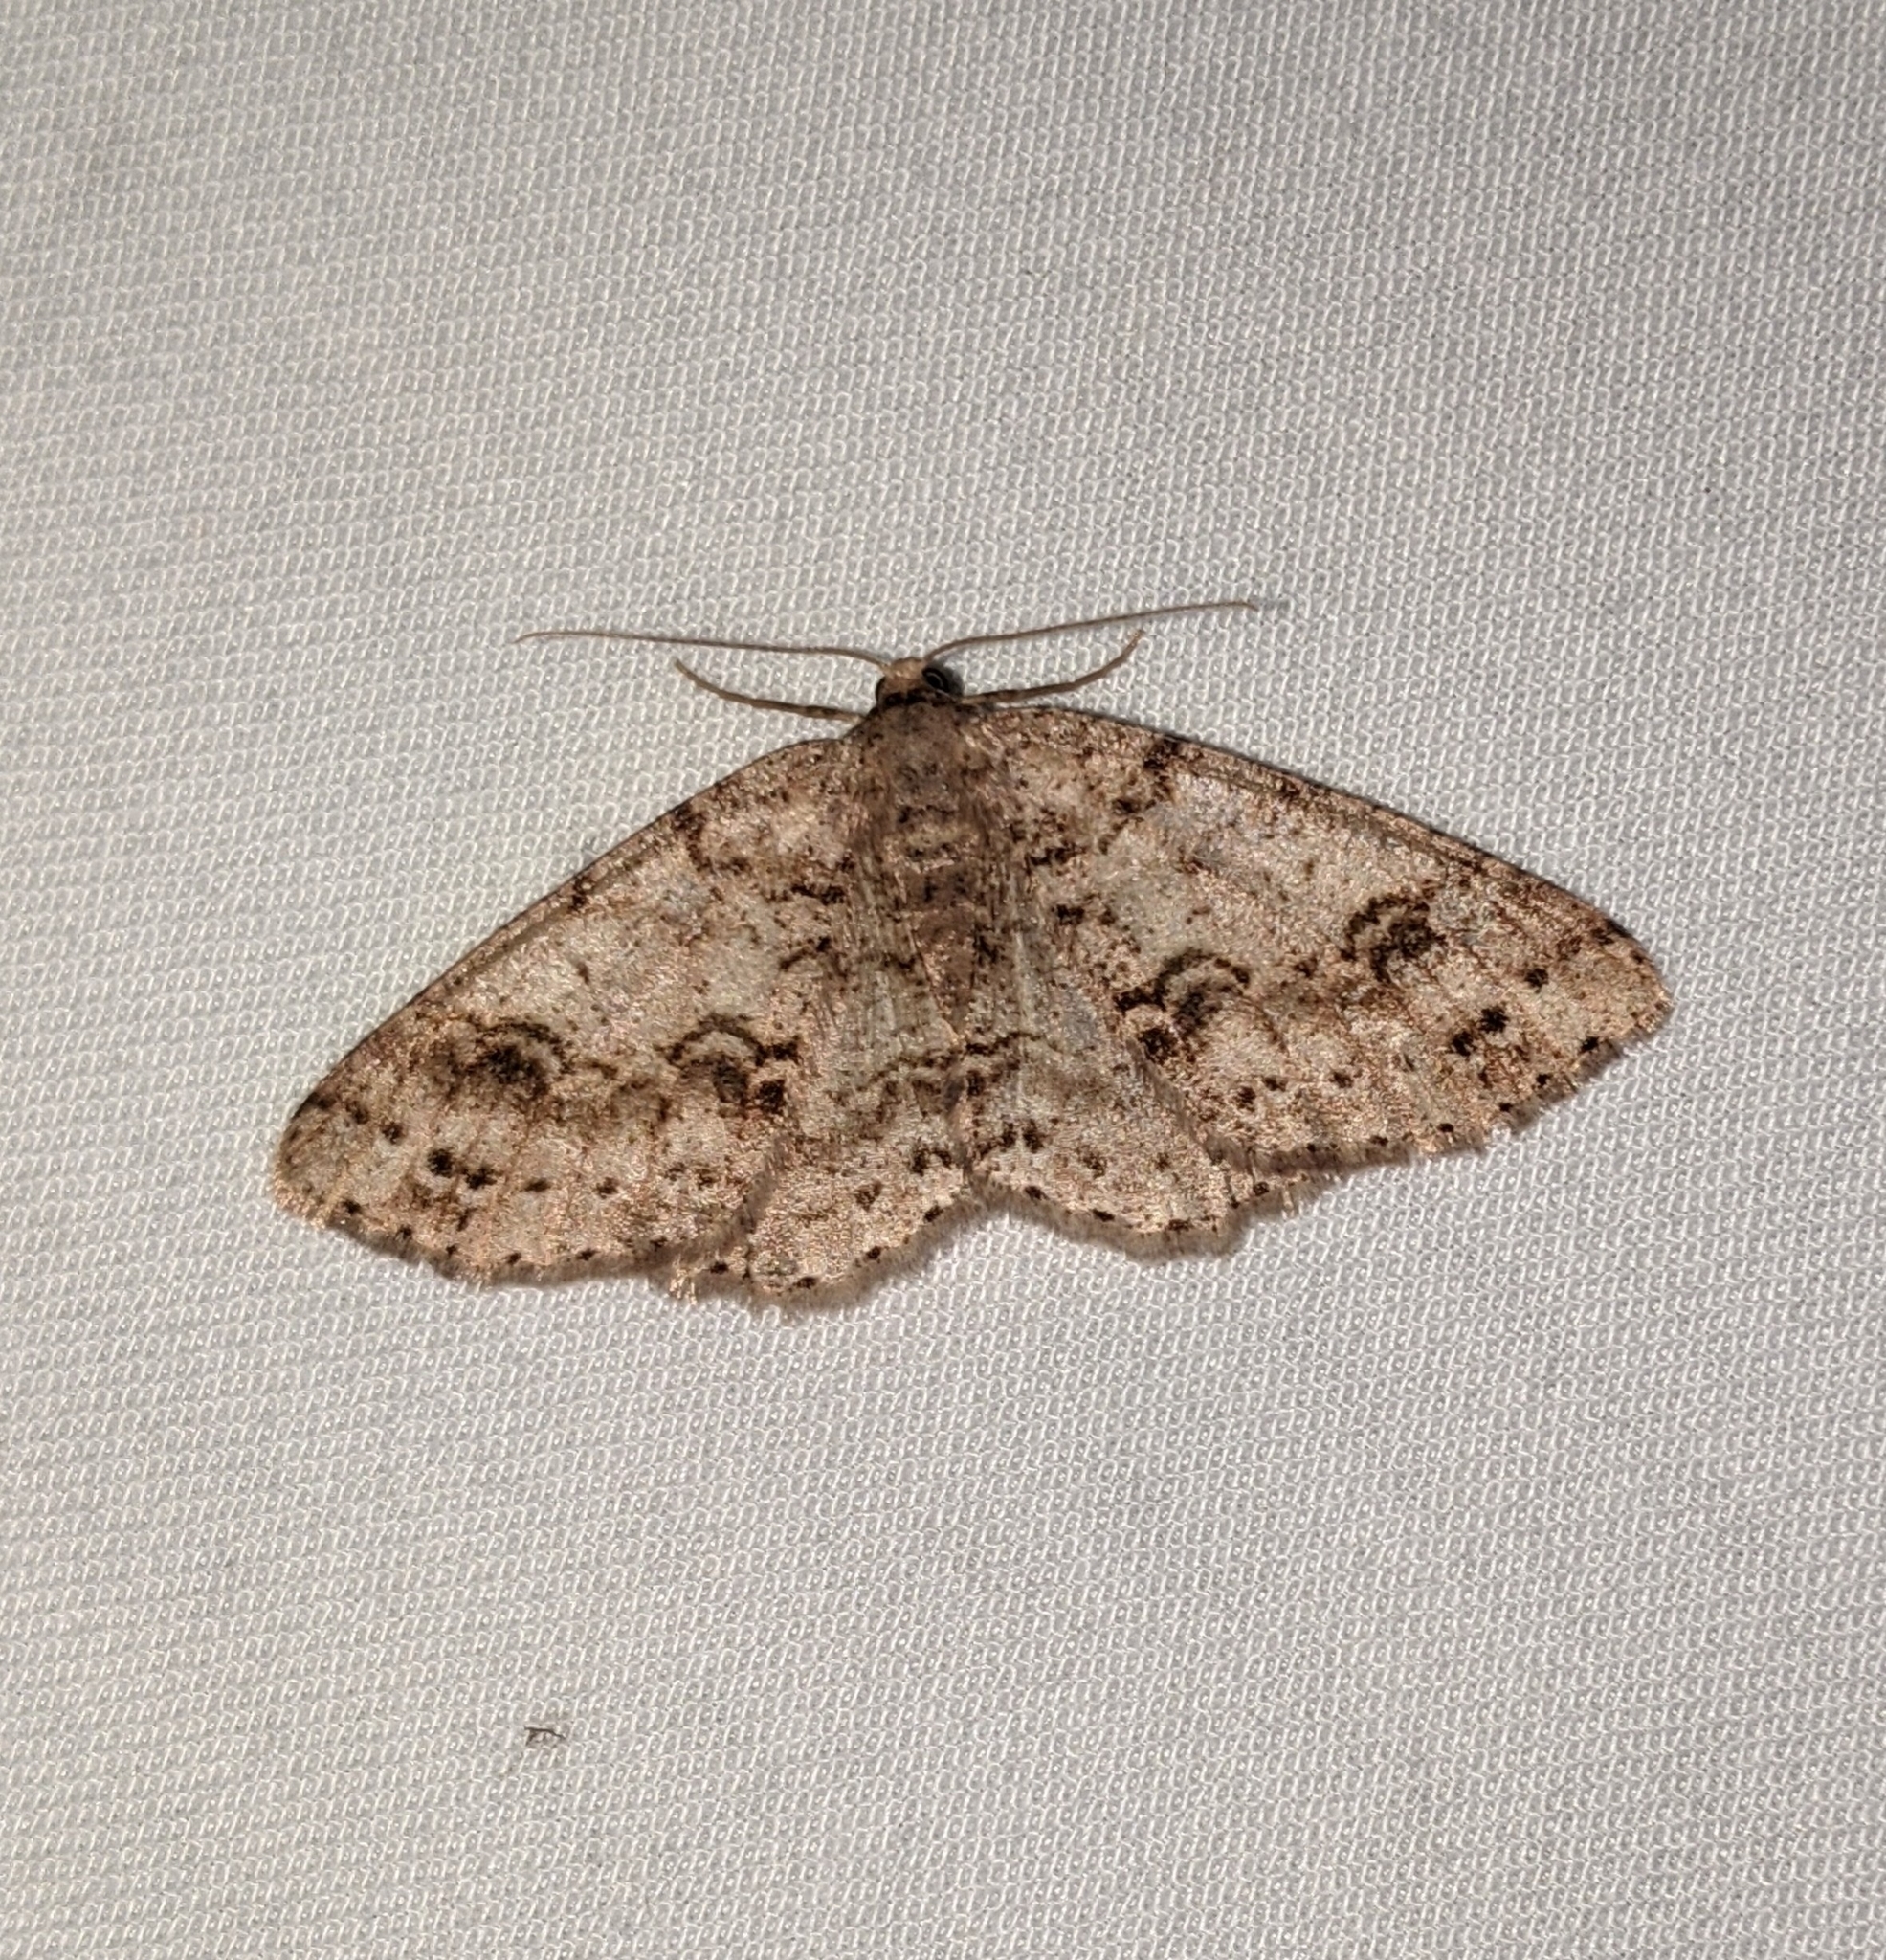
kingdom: Animalia
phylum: Arthropoda
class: Insecta
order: Lepidoptera
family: Geometridae
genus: Melanolophia
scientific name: Melanolophia imitata
